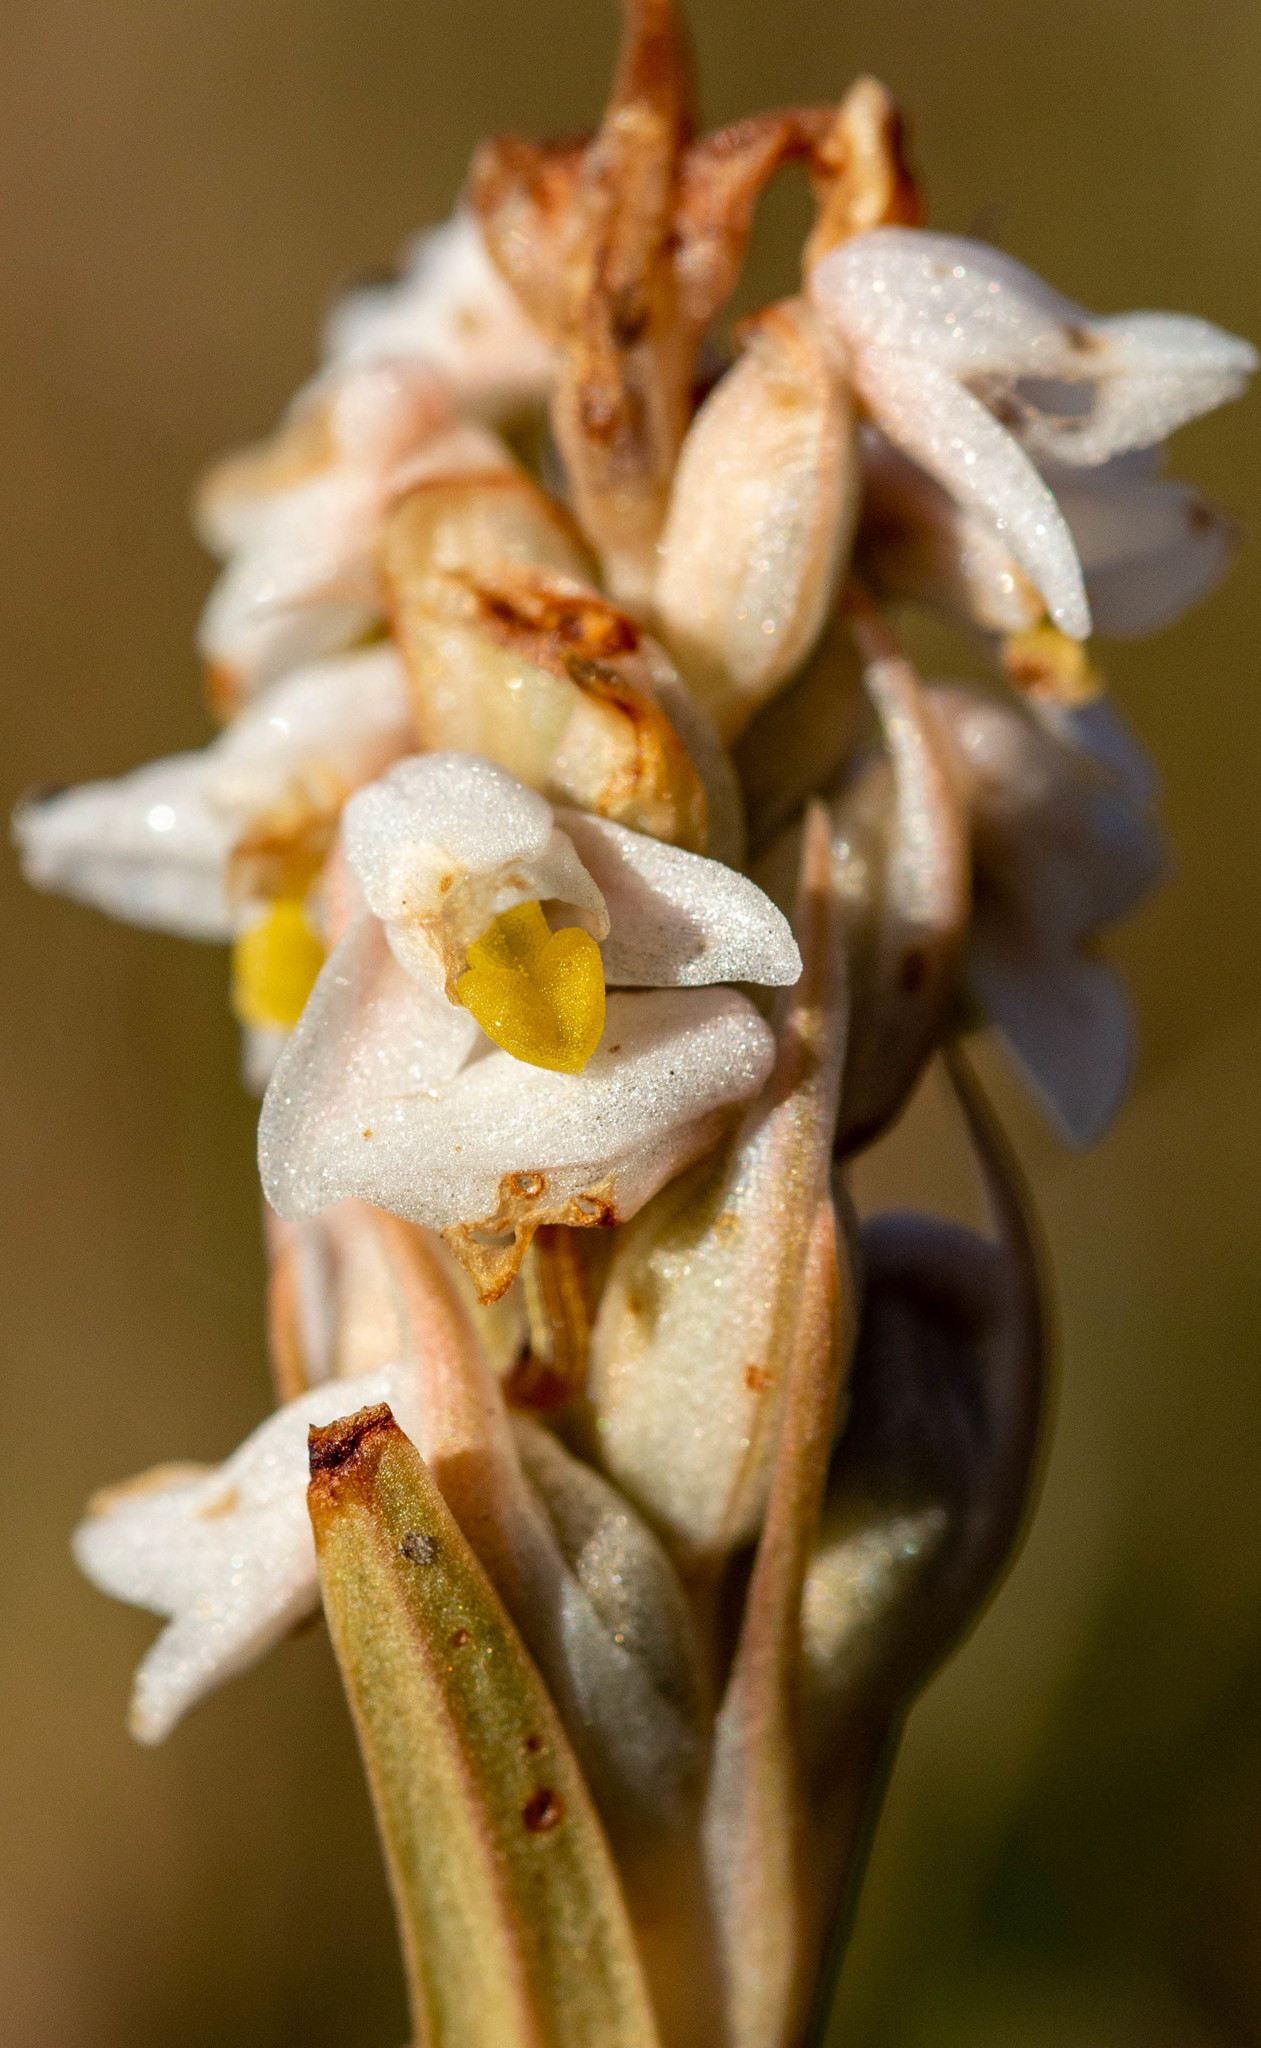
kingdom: Plantae
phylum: Tracheophyta
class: Liliopsida
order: Asparagales
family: Orchidaceae
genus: Zeuxine
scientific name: Zeuxine strateumatica
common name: Soldier's orchid
